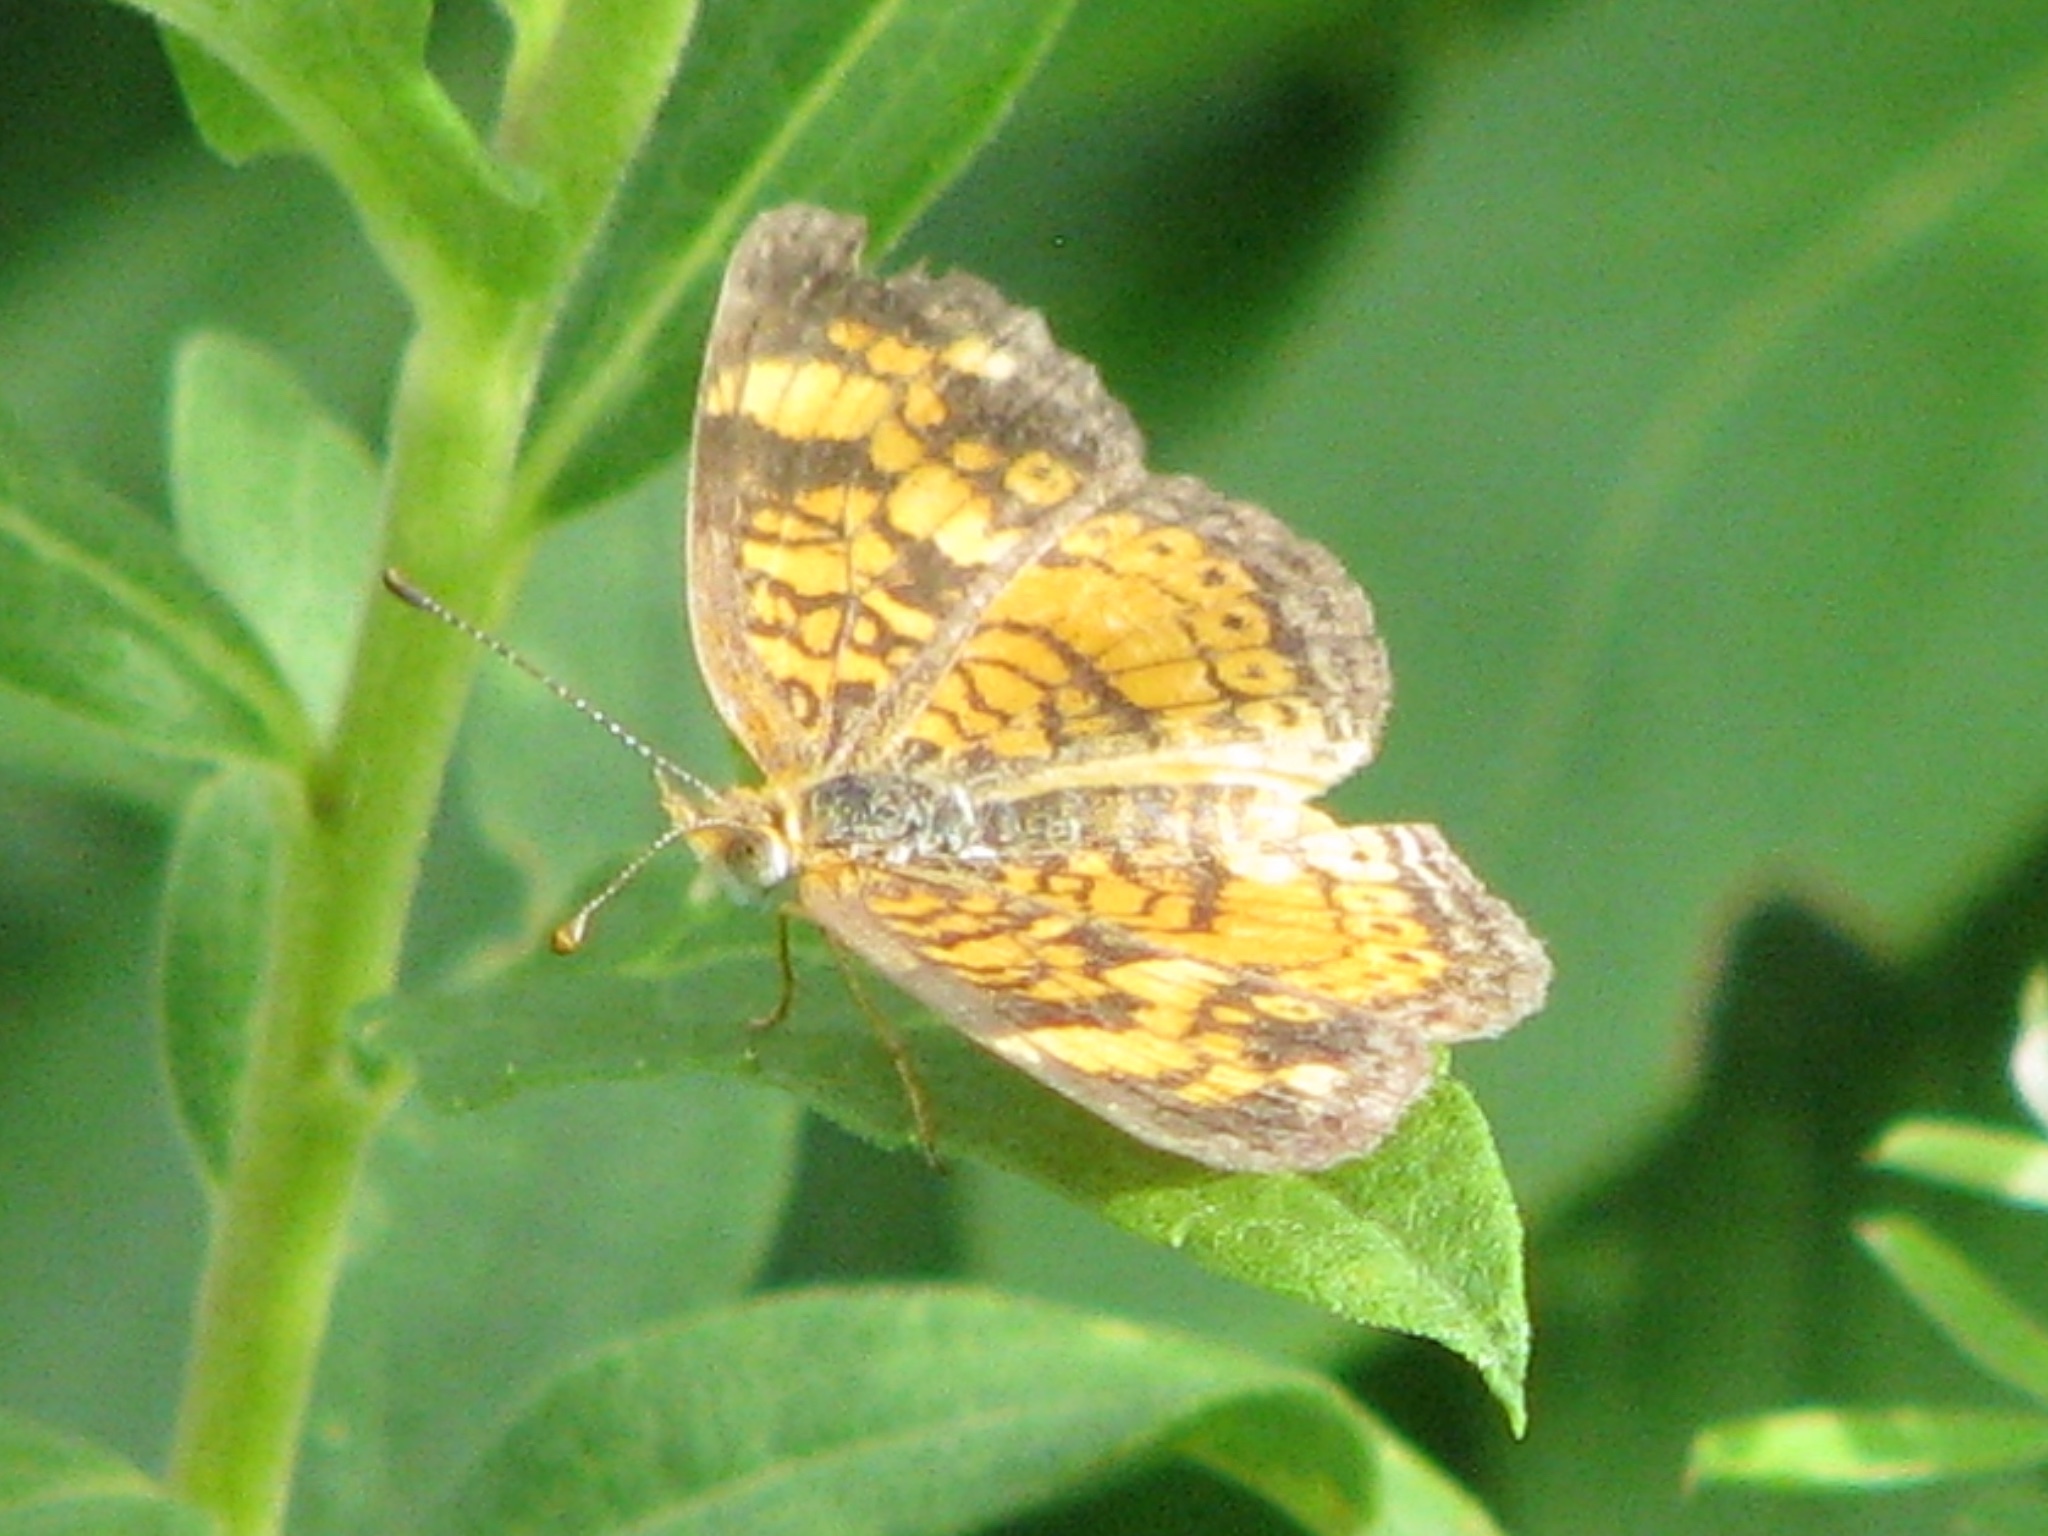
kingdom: Animalia
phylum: Arthropoda
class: Insecta
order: Lepidoptera
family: Nymphalidae
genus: Phyciodes
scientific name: Phyciodes tharos
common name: Pearl crescent
